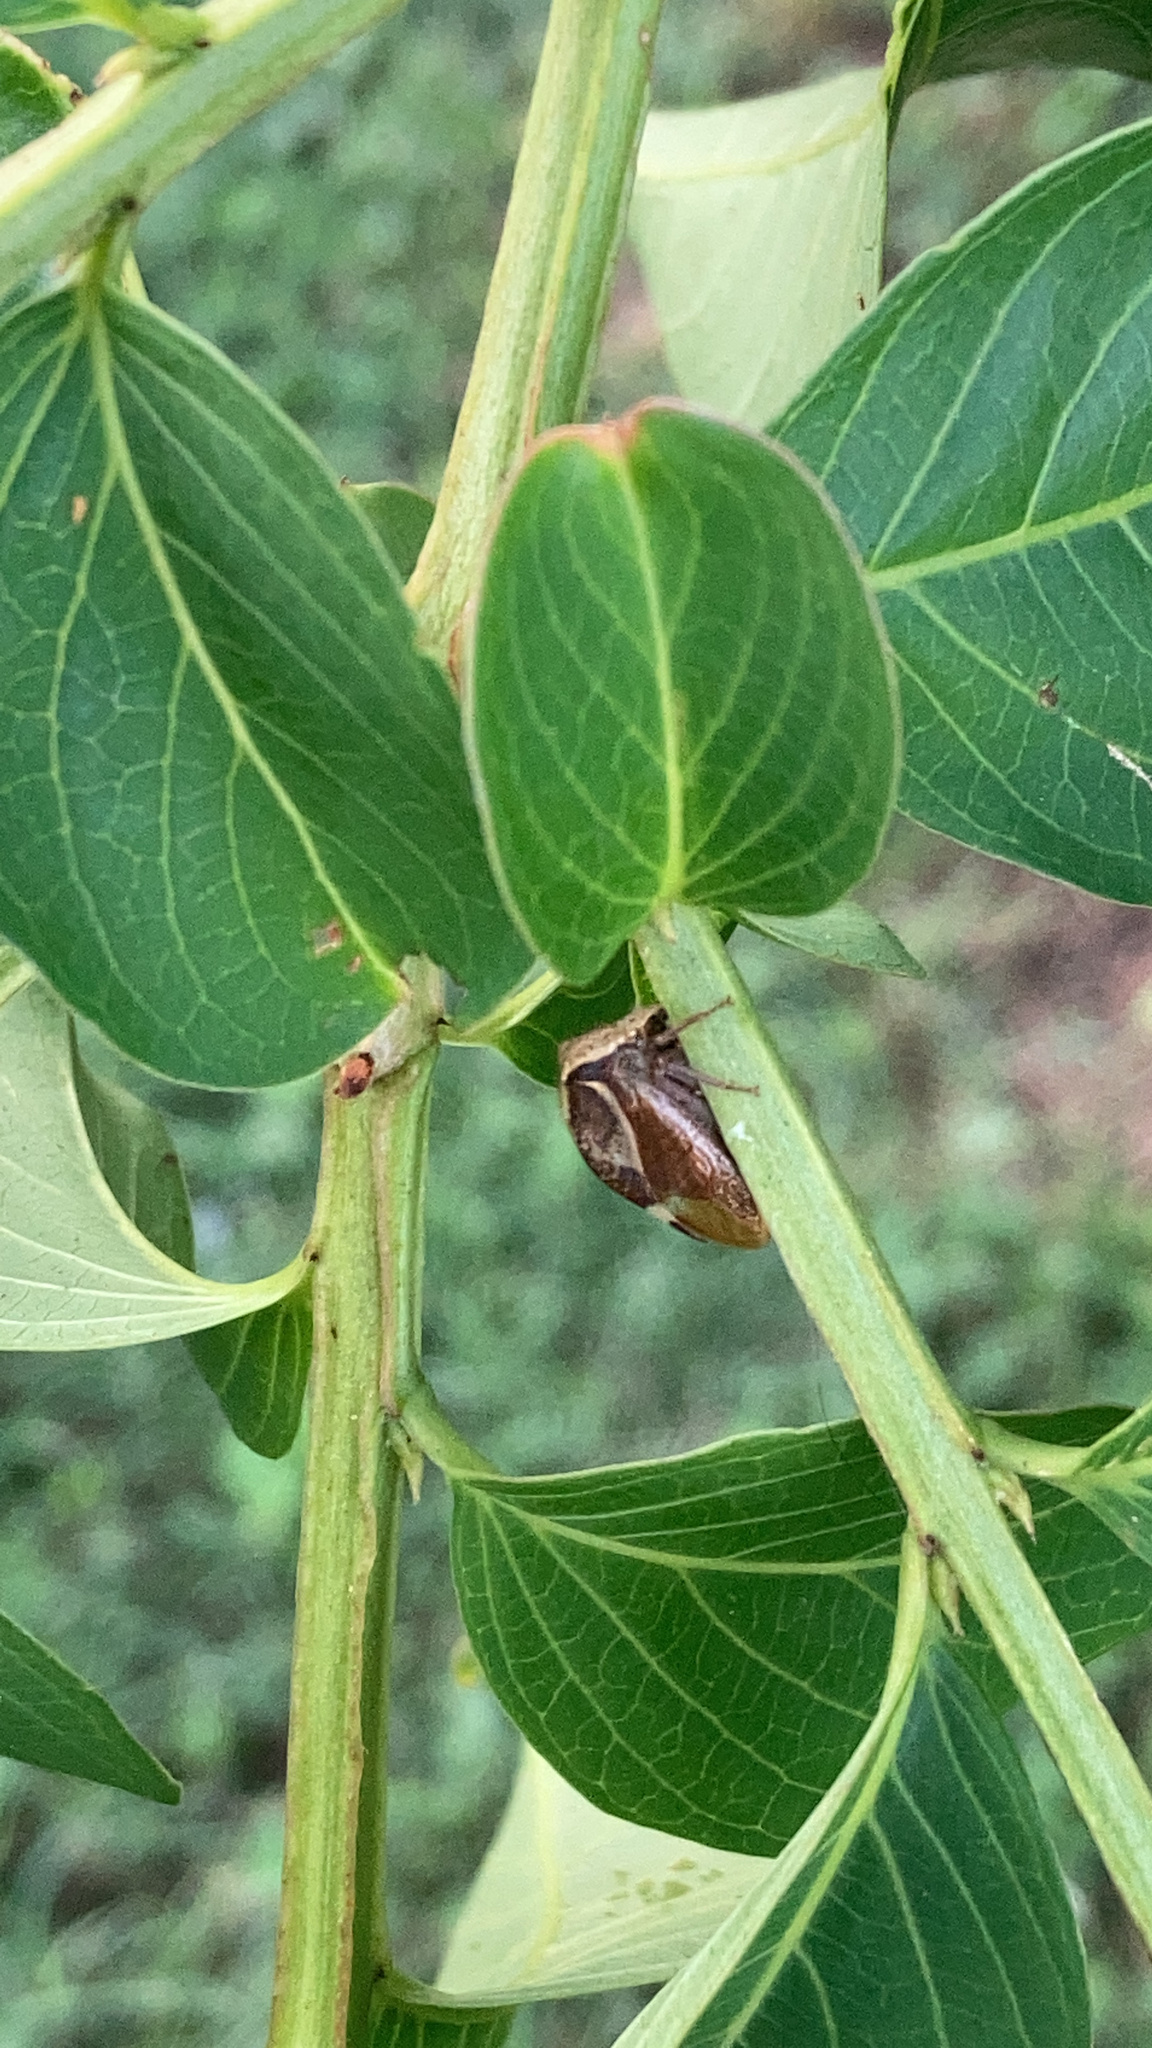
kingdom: Animalia
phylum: Arthropoda
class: Insecta
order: Hemiptera
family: Membracidae
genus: Stictocephala
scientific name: Stictocephala diceros
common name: Two-horned treehopper
